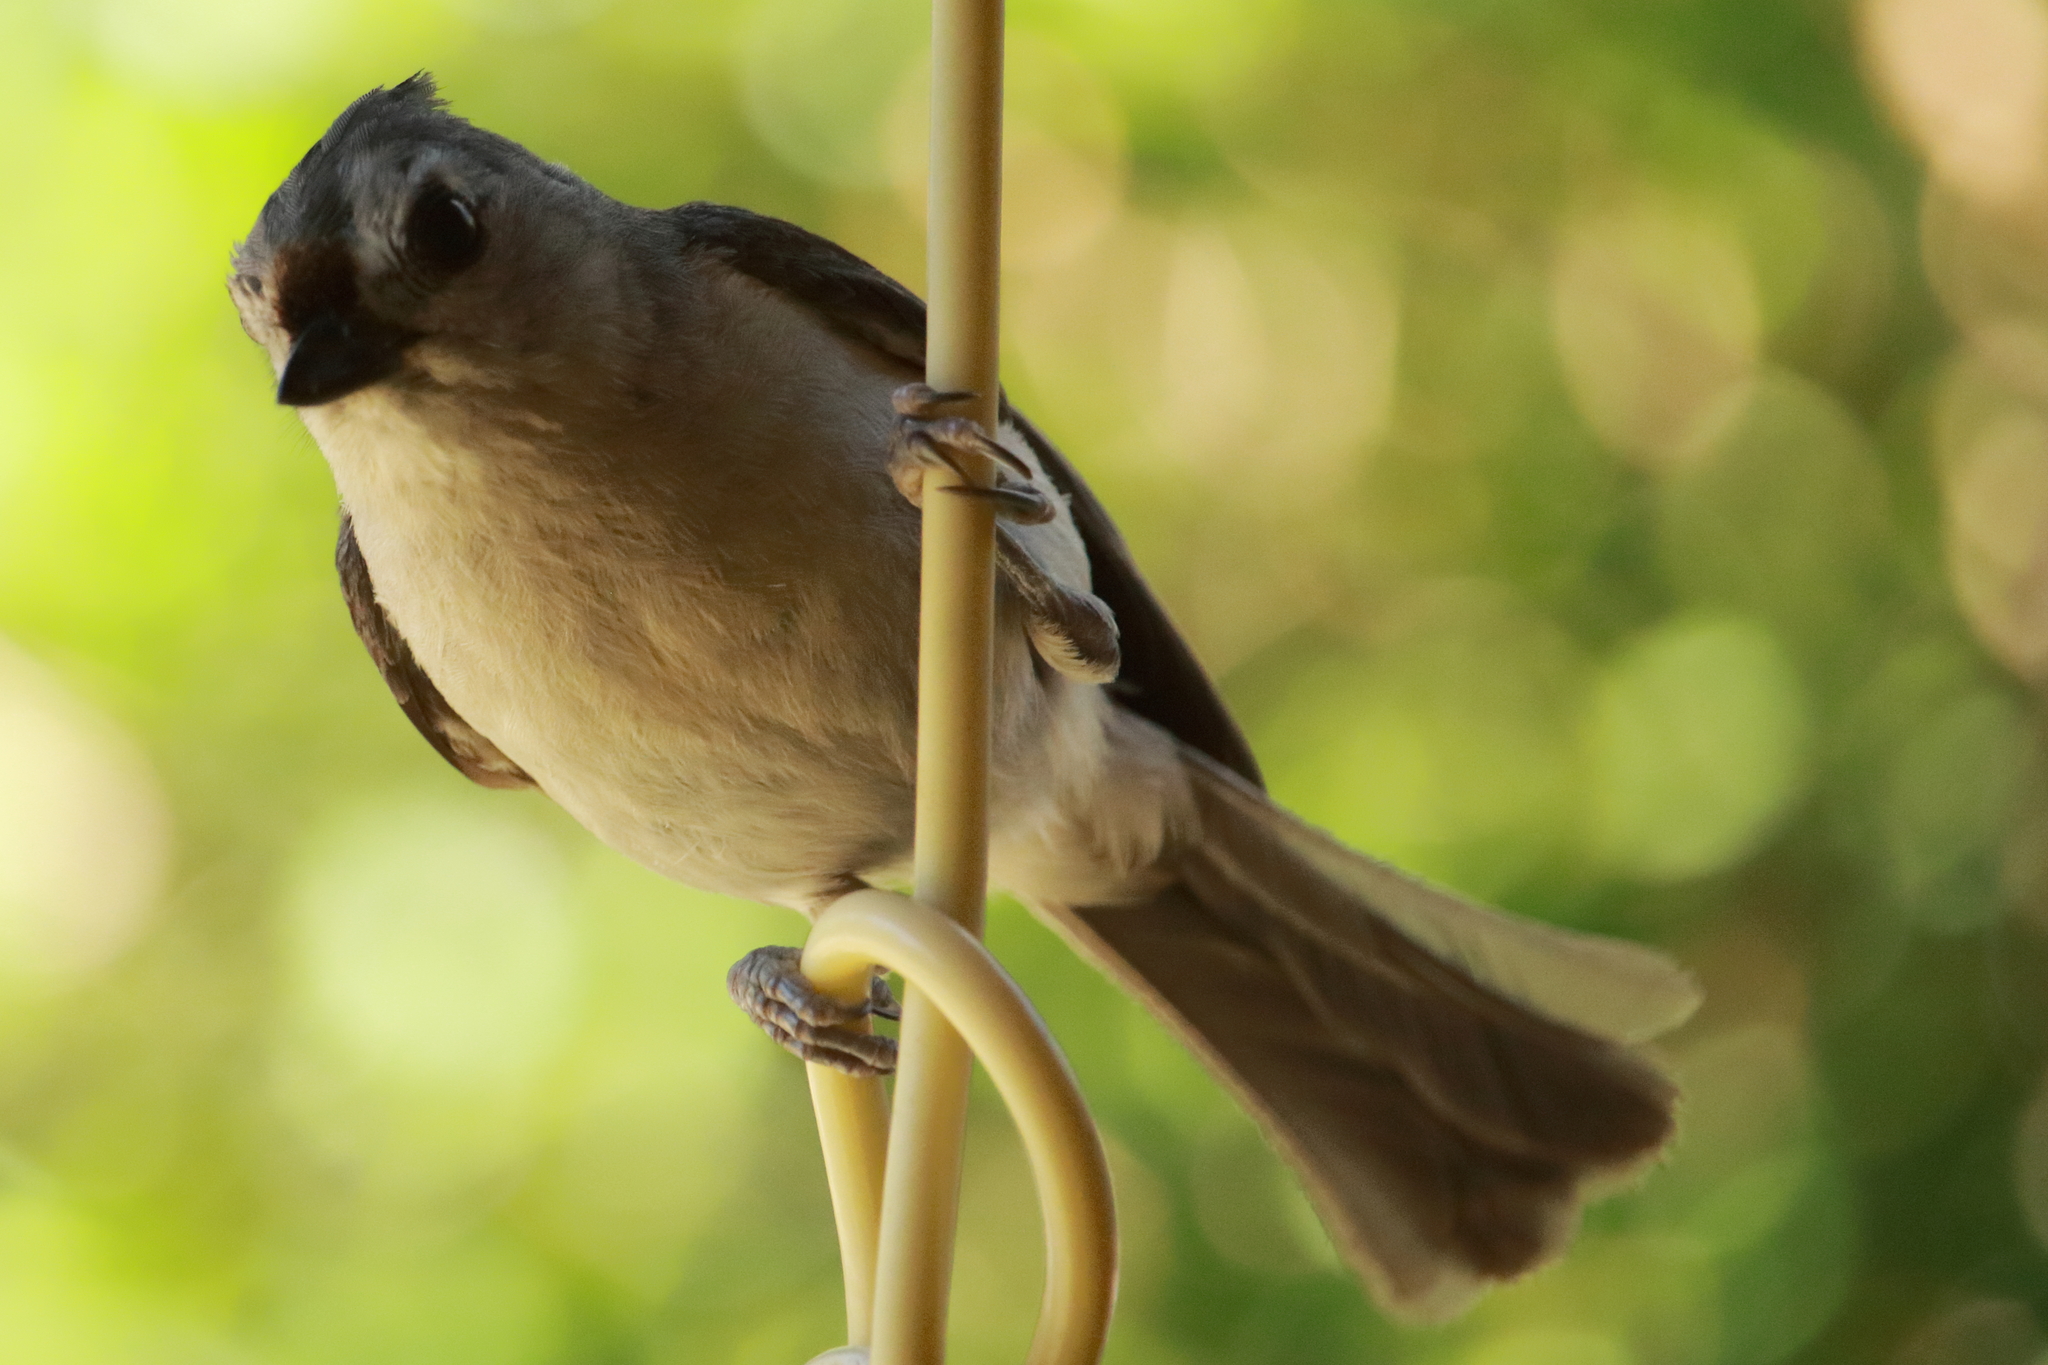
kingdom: Animalia
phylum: Chordata
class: Aves
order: Passeriformes
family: Paridae
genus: Baeolophus
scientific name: Baeolophus bicolor
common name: Tufted titmouse
